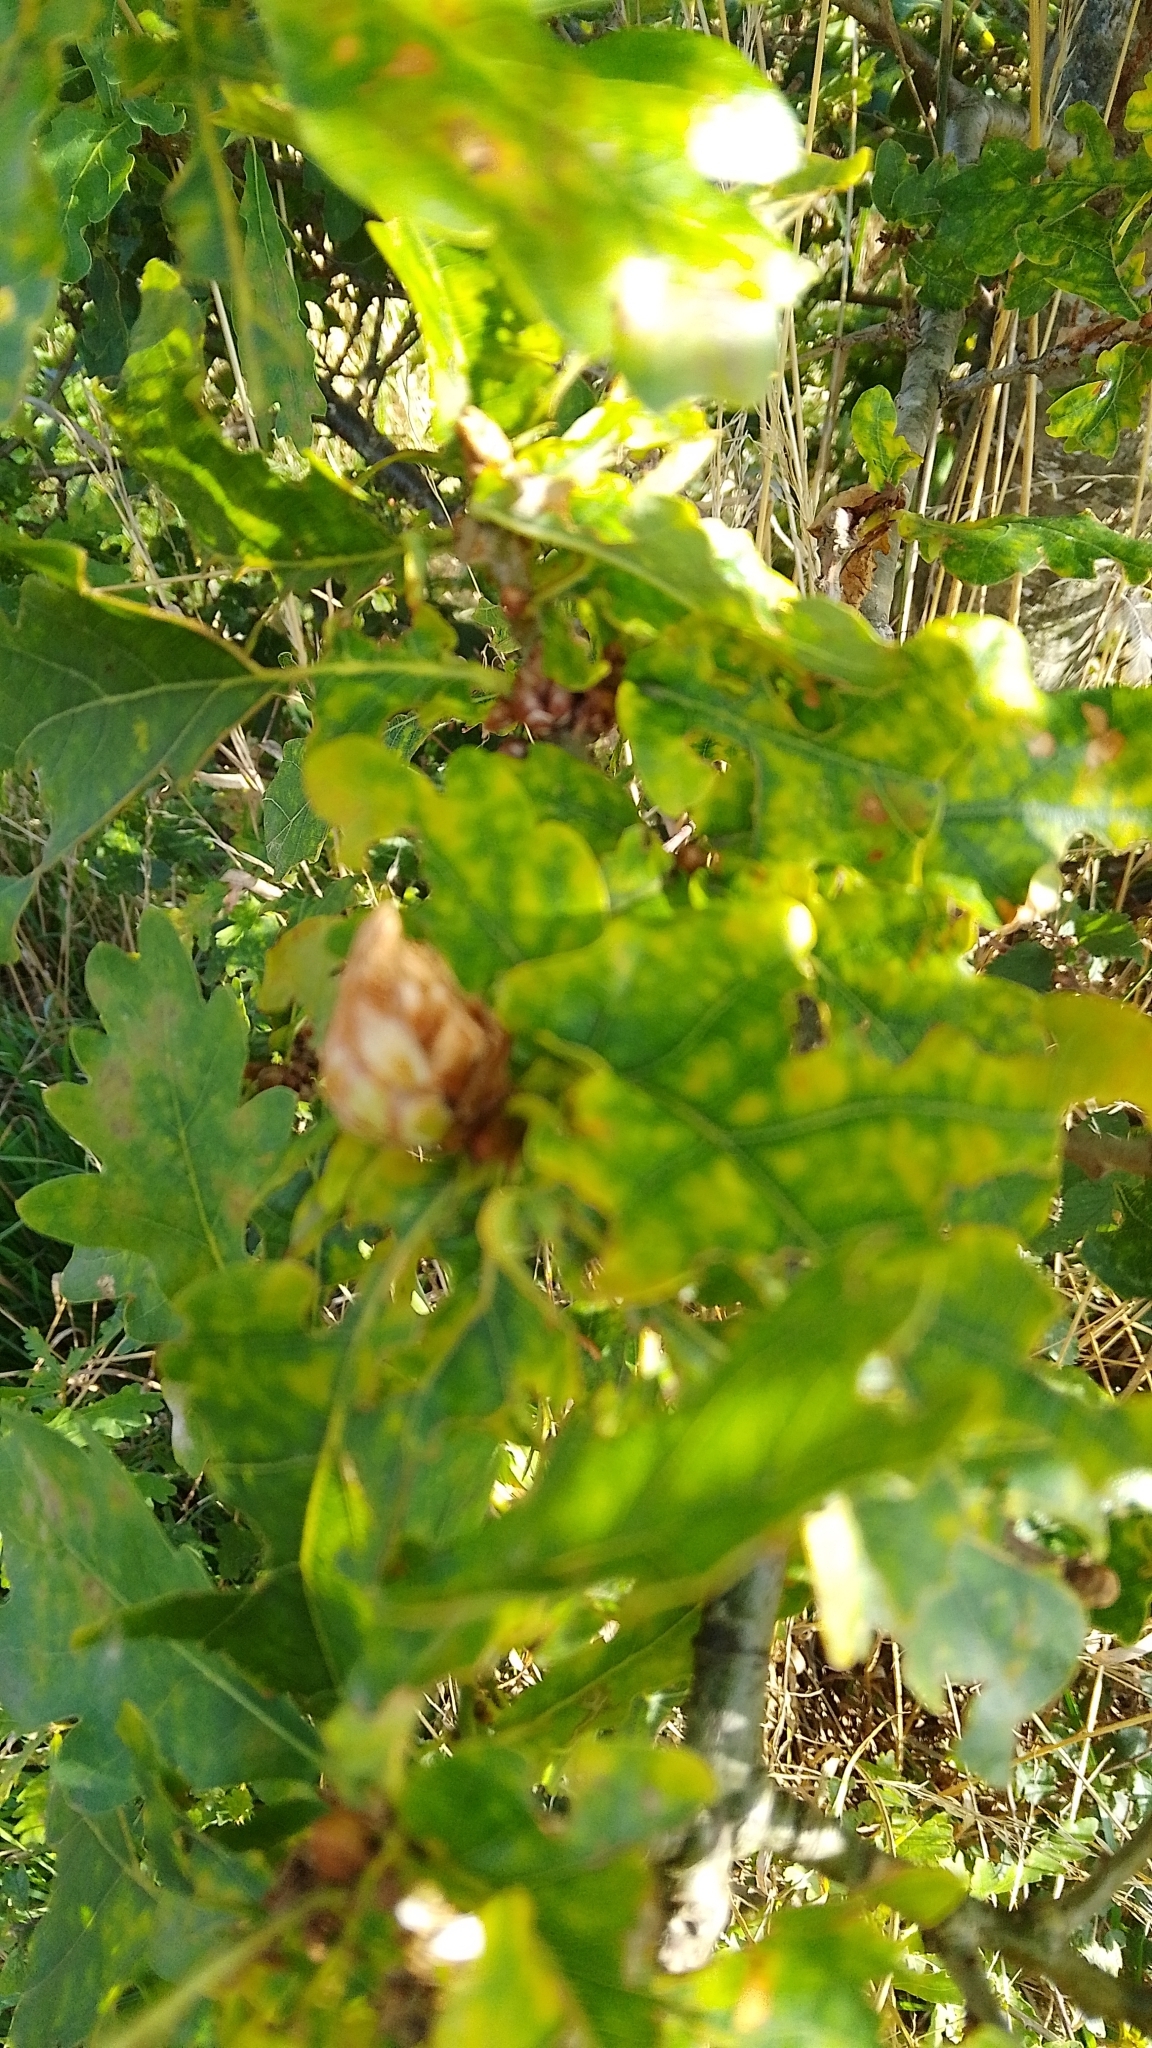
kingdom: Animalia
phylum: Arthropoda
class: Insecta
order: Hymenoptera
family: Cynipidae
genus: Andricus
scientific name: Andricus foecundatrix
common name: Artichoke gall
